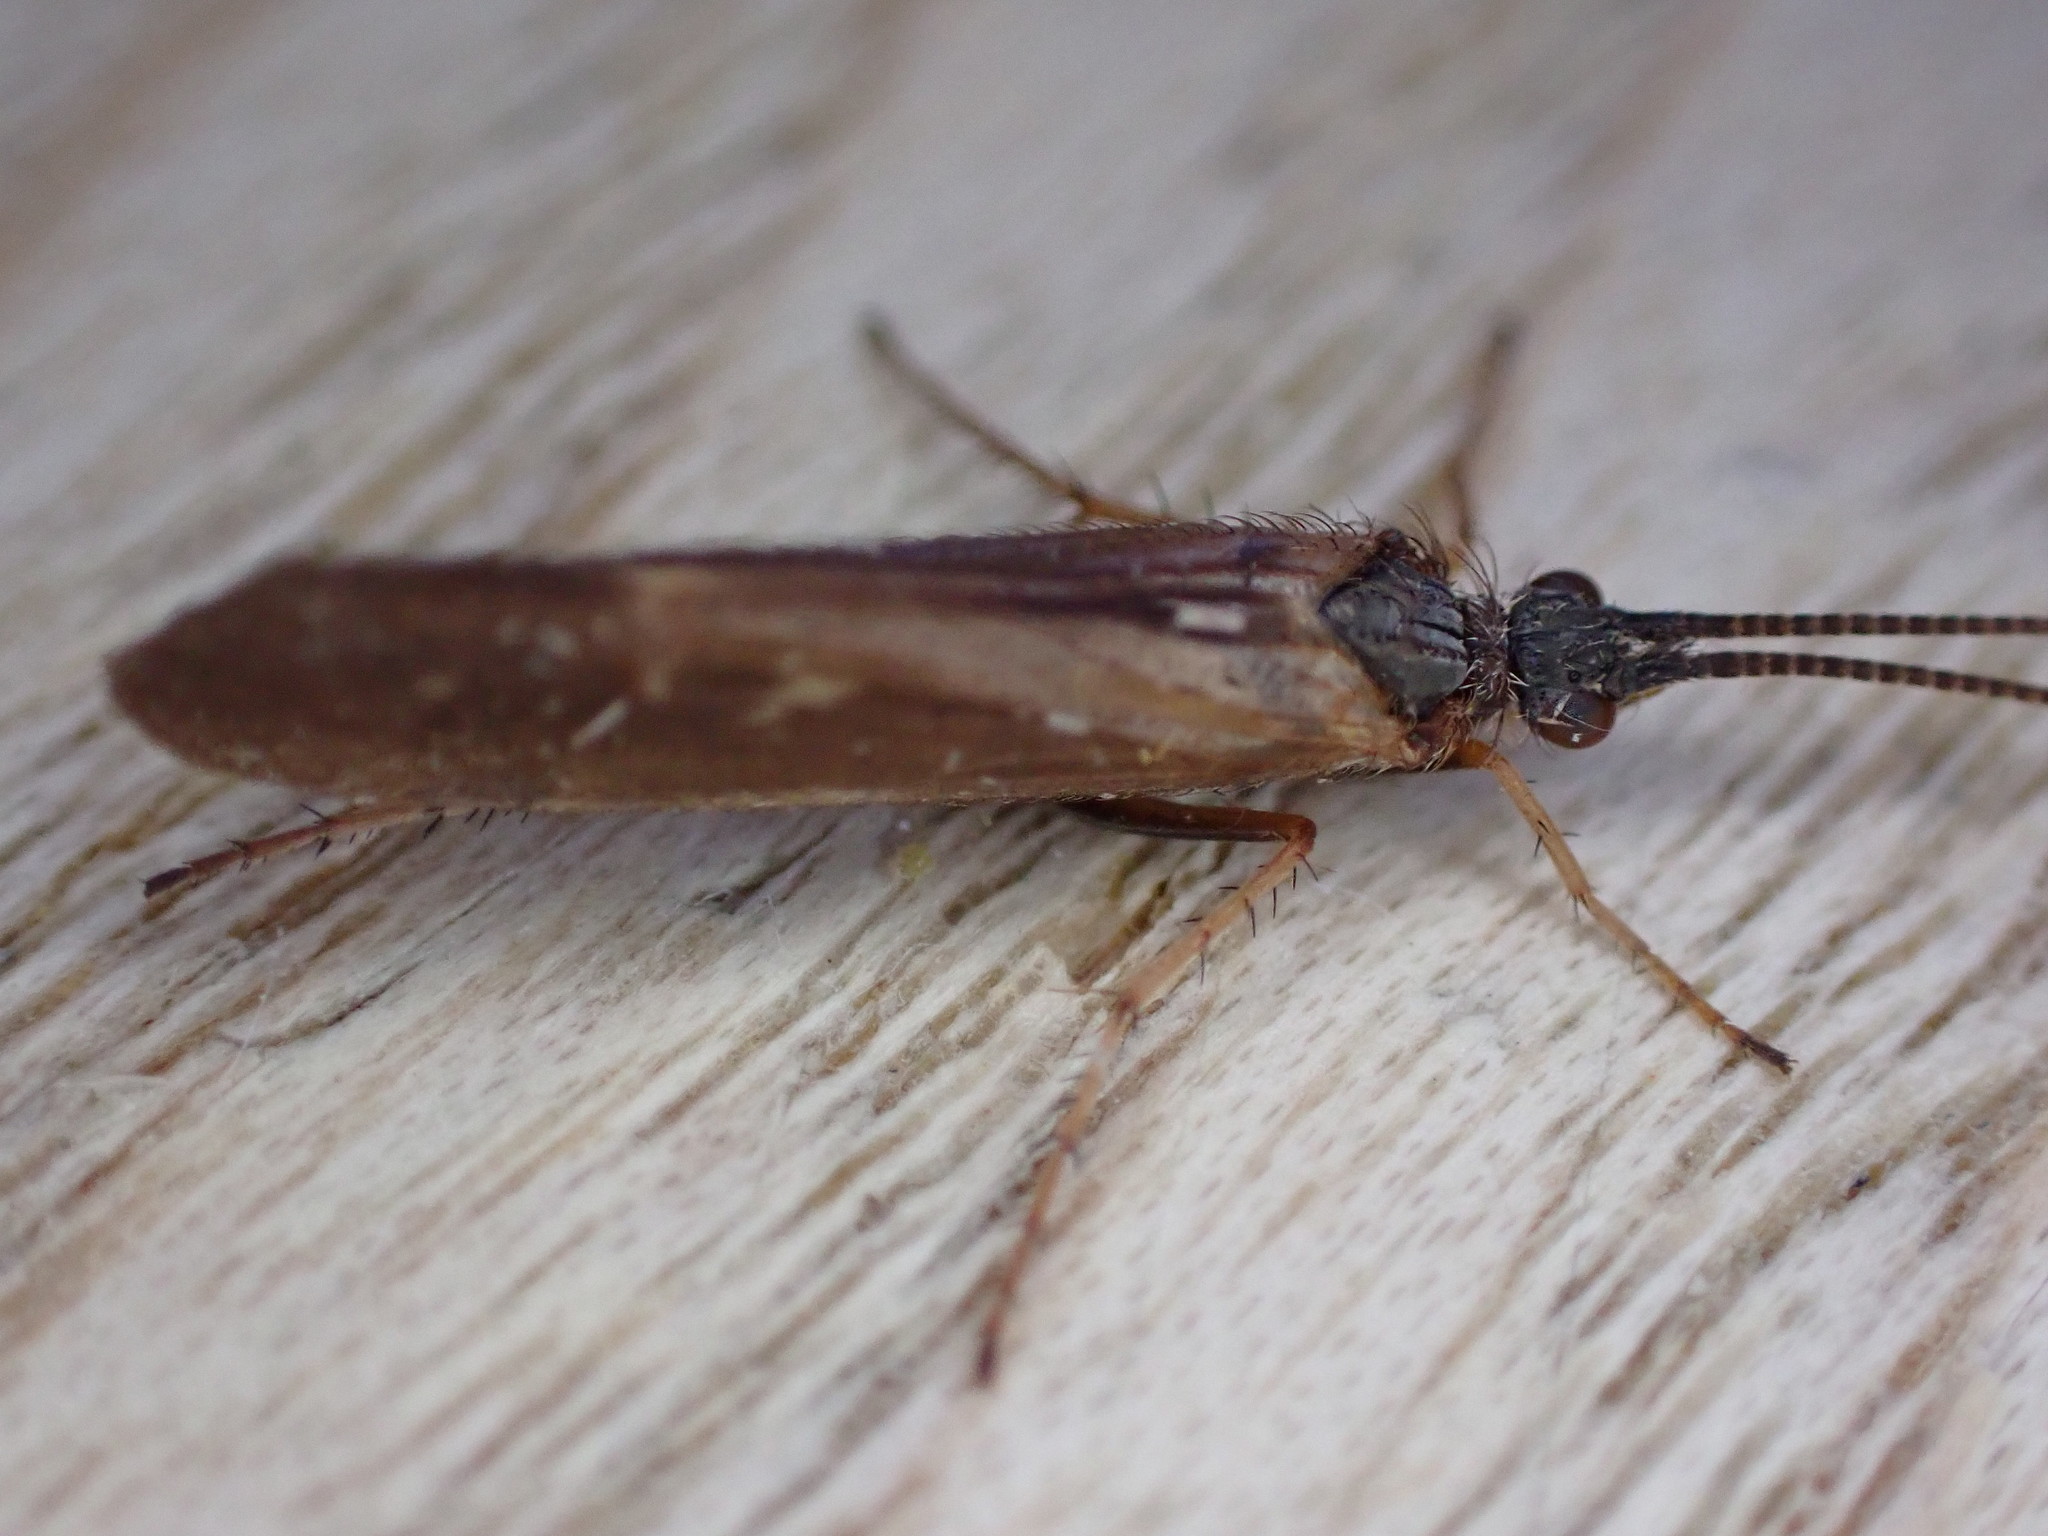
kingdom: Animalia
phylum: Arthropoda
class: Insecta
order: Trichoptera
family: Limnephilidae
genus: Limnephilus
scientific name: Limnephilus auricula
